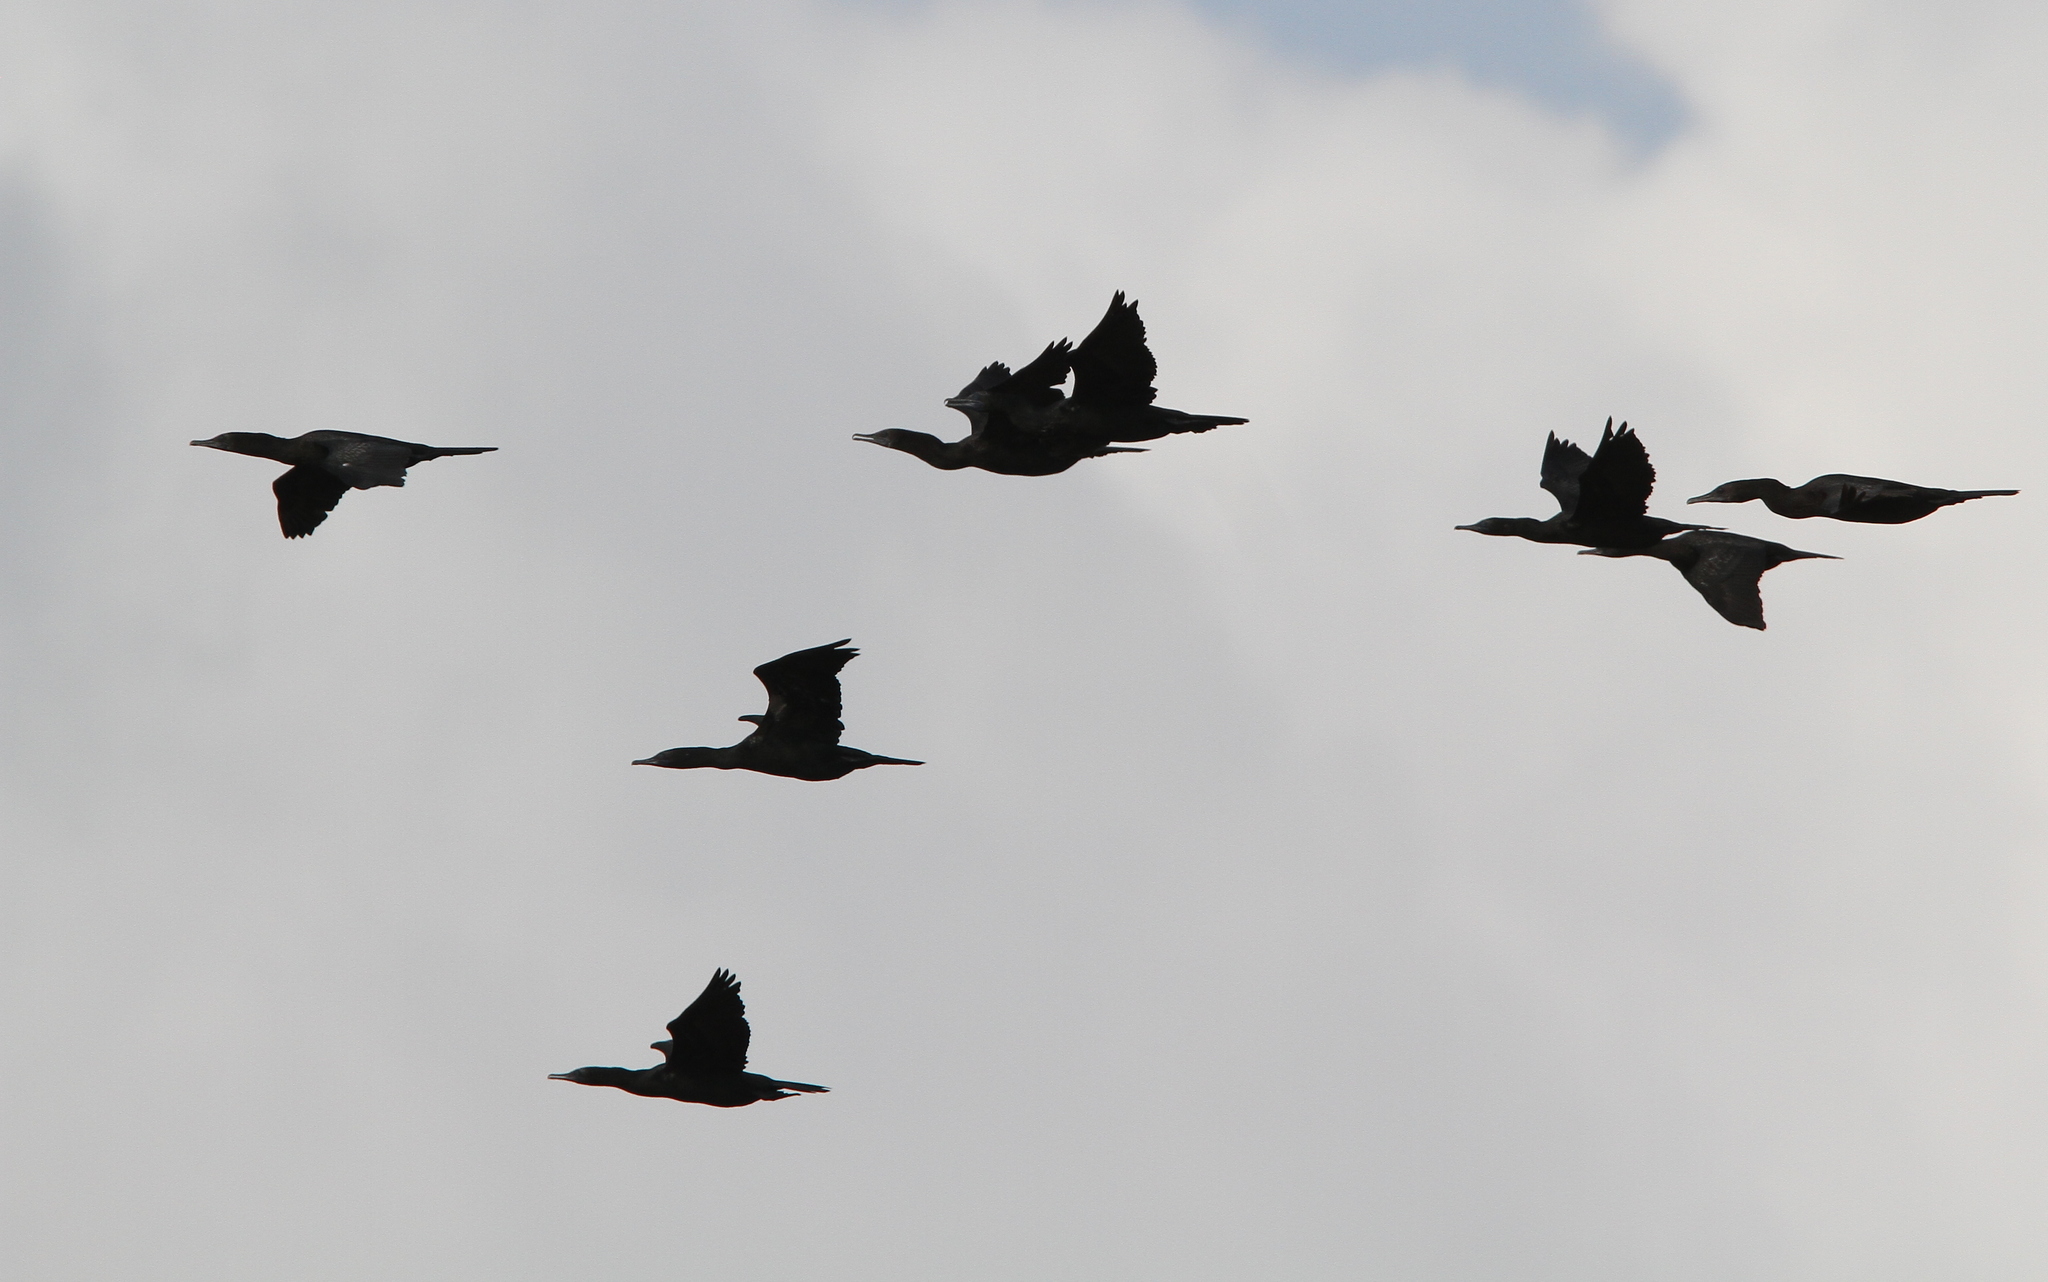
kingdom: Animalia
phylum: Chordata
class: Aves
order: Suliformes
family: Phalacrocoracidae
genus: Phalacrocorax
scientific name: Phalacrocorax sulcirostris
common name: Little black cormorant
